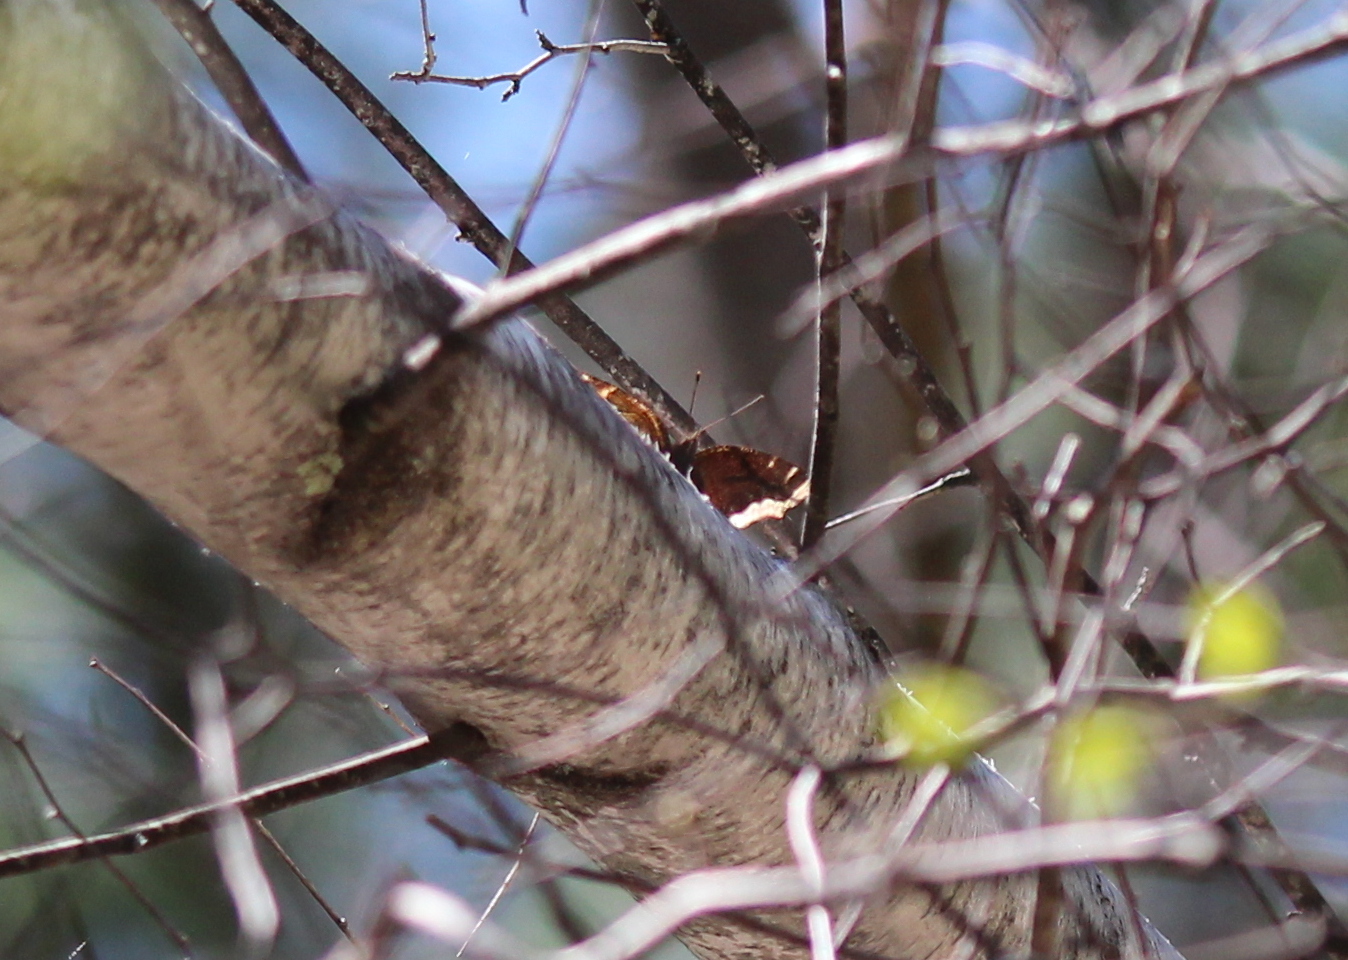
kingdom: Animalia
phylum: Arthropoda
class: Insecta
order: Lepidoptera
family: Nymphalidae
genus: Nymphalis
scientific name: Nymphalis antiopa
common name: Camberwell beauty
